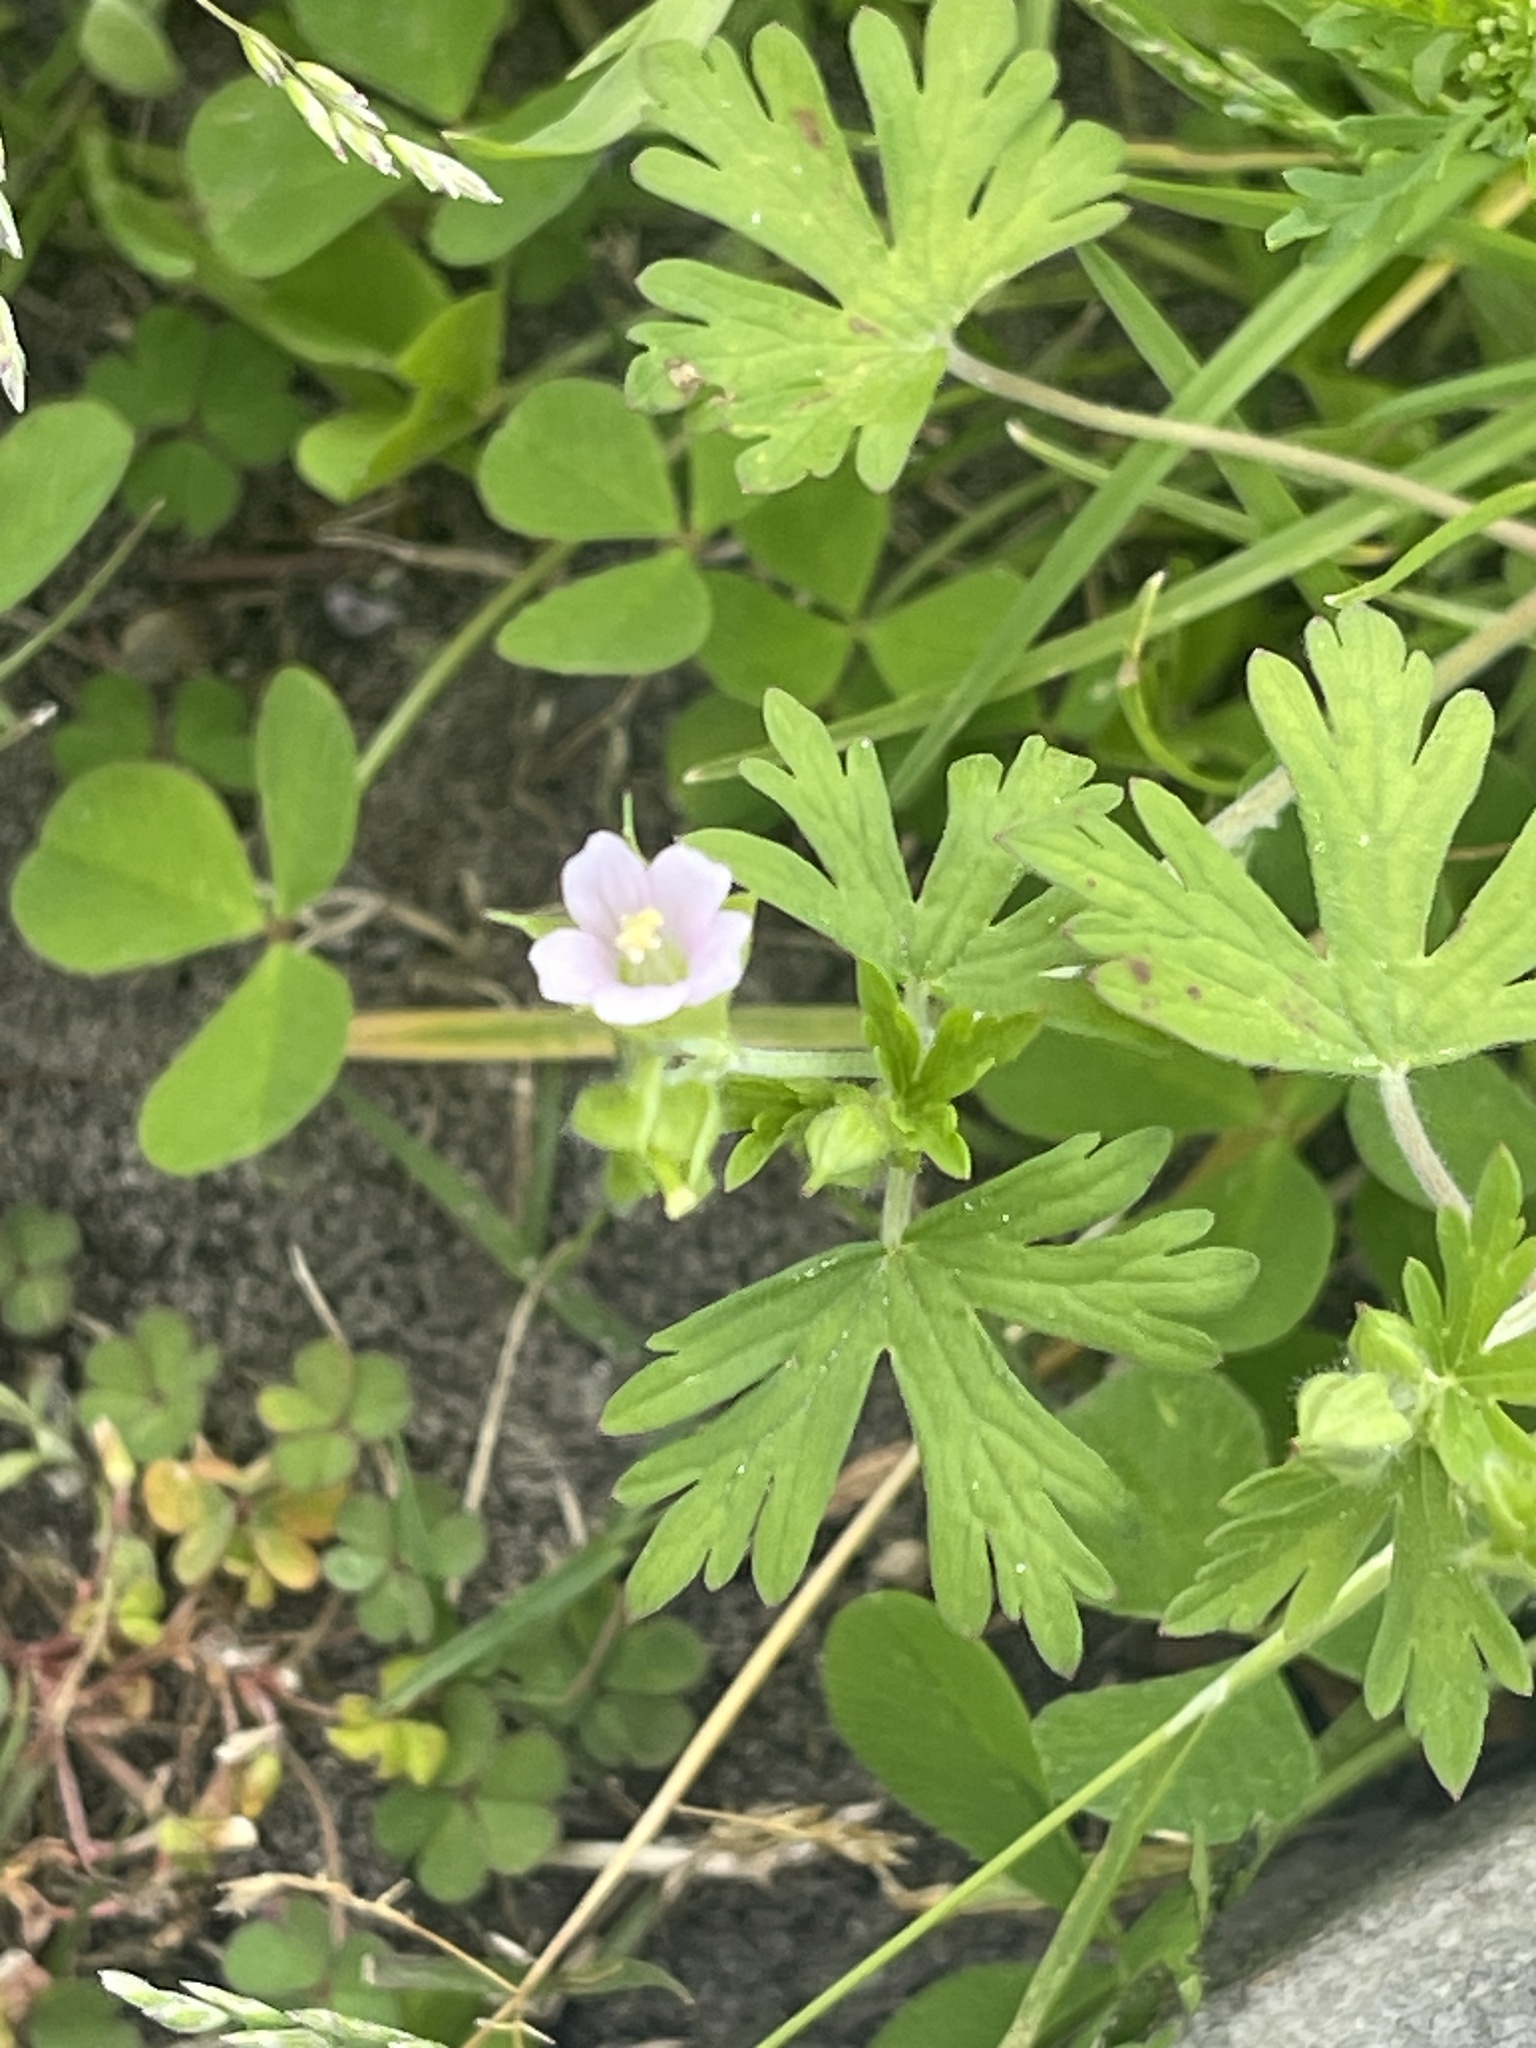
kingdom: Plantae
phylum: Tracheophyta
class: Magnoliopsida
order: Geraniales
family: Geraniaceae
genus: Geranium
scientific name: Geranium carolinianum
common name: Carolina crane's-bill
